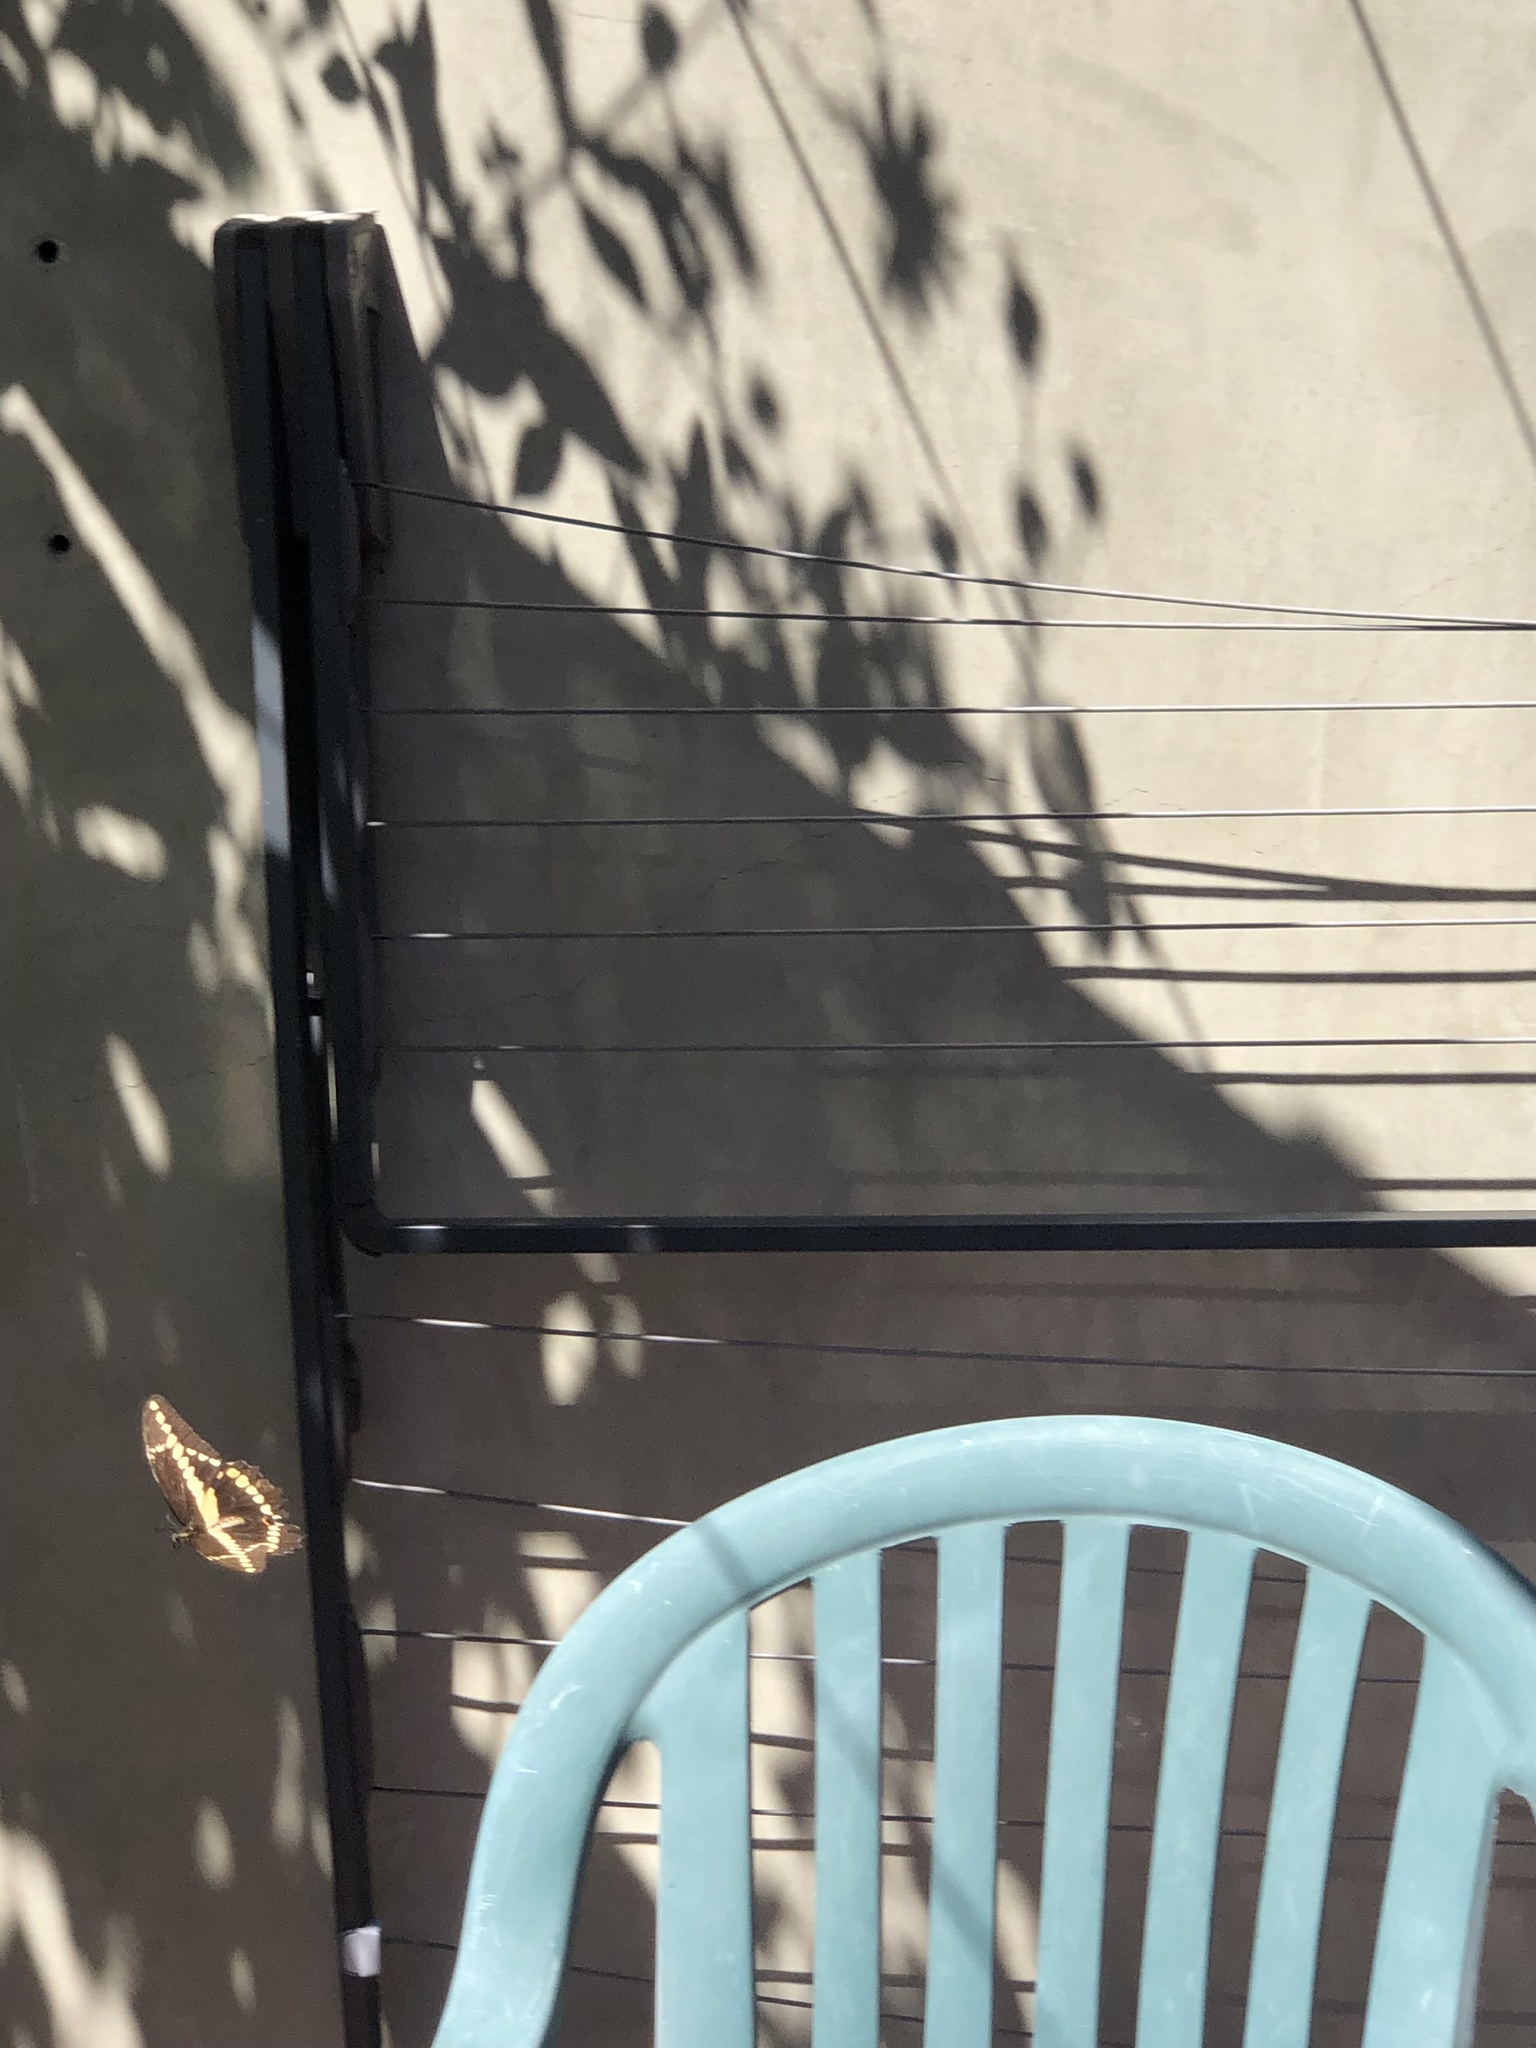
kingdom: Animalia
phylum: Arthropoda
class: Insecta
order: Lepidoptera
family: Papilionidae
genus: Papilio
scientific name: Papilio rumiko
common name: Western giant swallowtail
